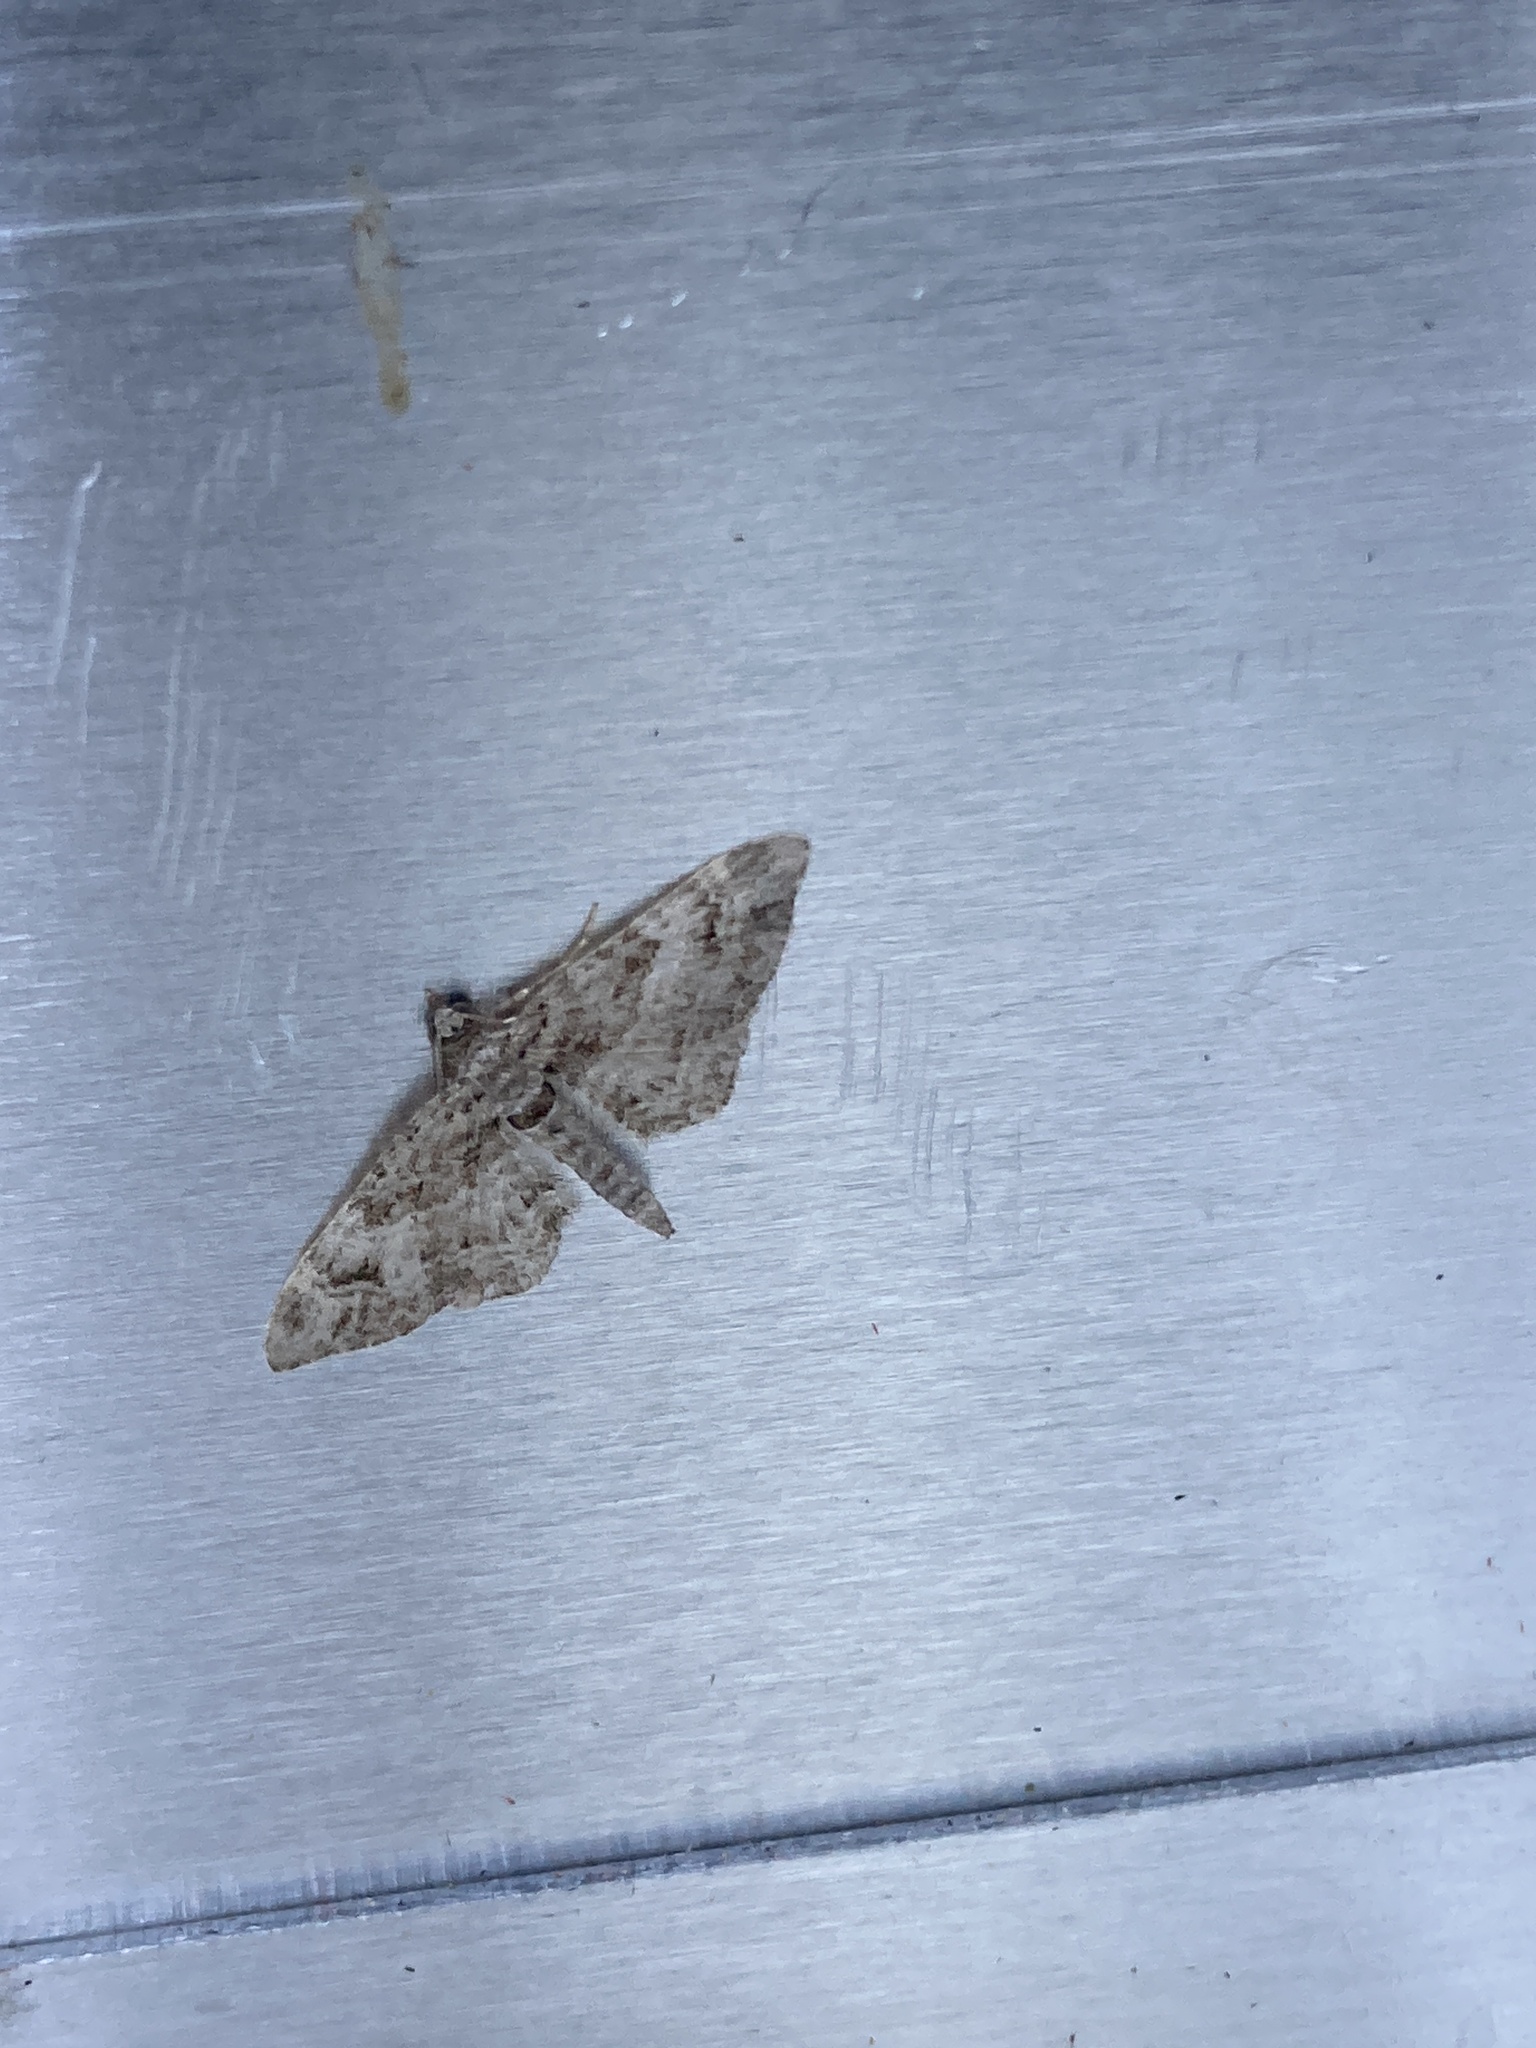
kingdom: Animalia
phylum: Arthropoda
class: Insecta
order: Lepidoptera
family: Geometridae
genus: Gymnoscelis
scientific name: Gymnoscelis rufifasciata
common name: Double-striped pug
